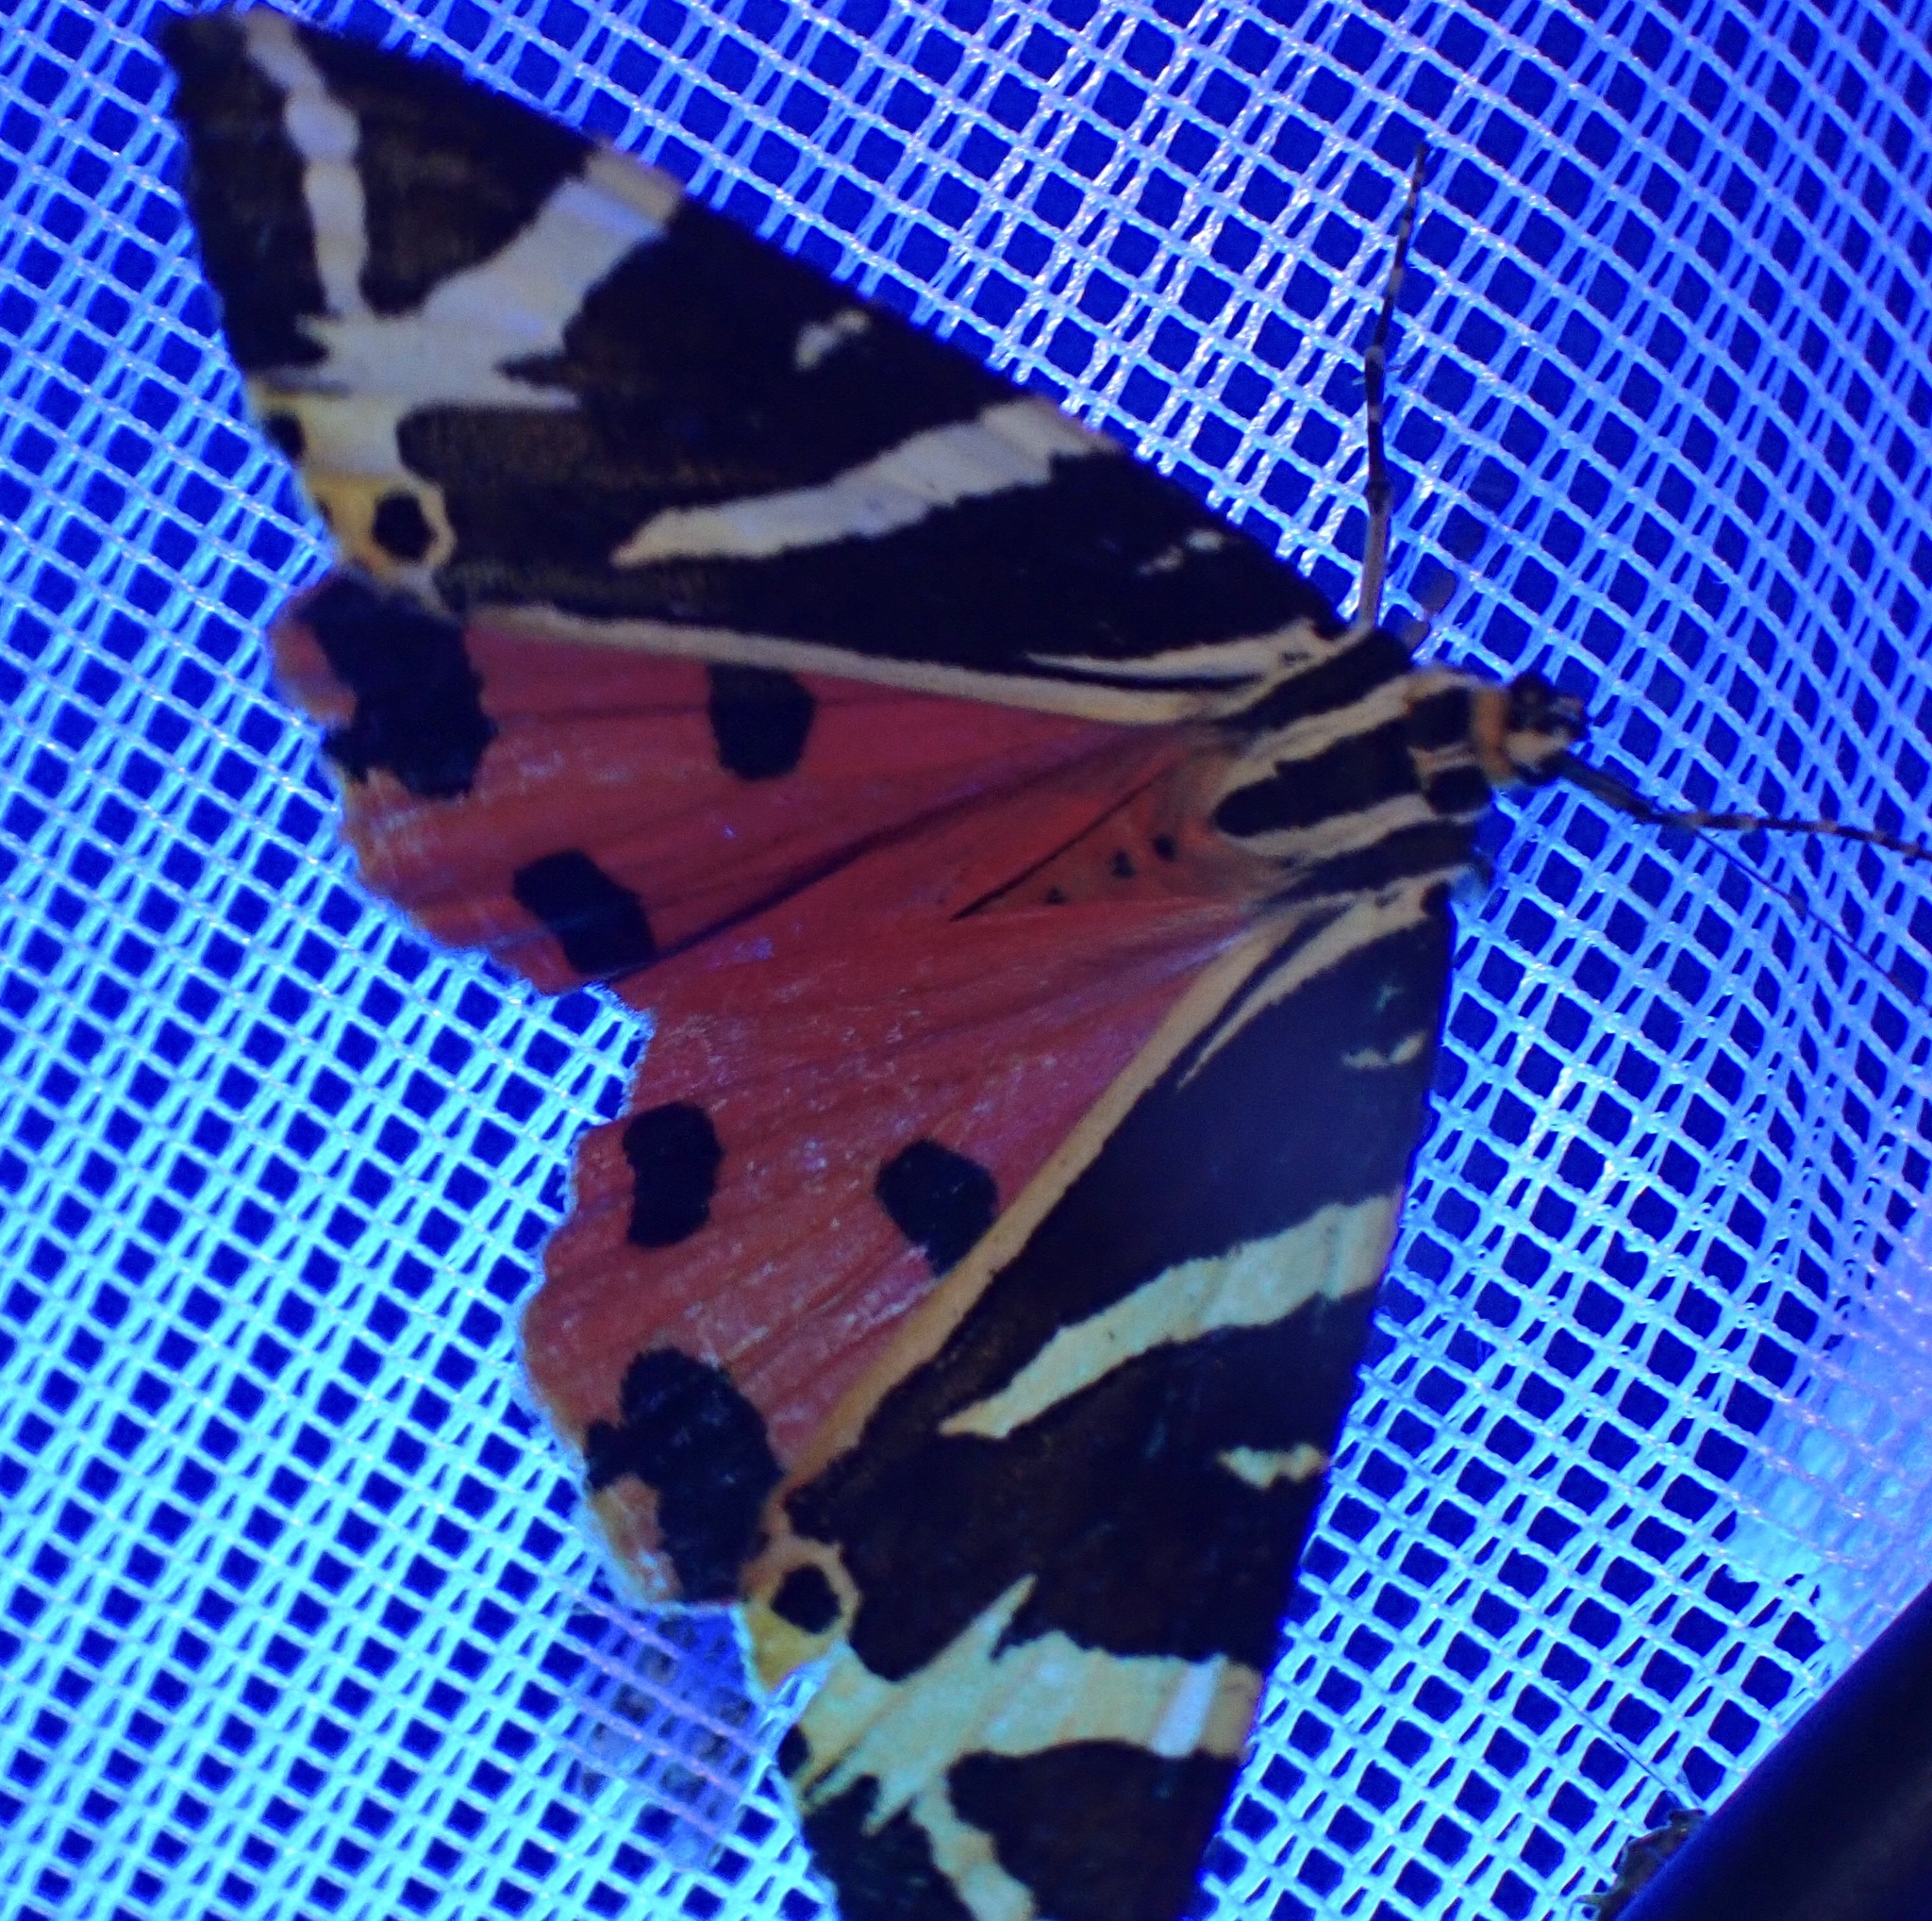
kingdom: Animalia
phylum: Arthropoda
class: Insecta
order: Lepidoptera
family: Erebidae
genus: Euplagia
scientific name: Euplagia quadripunctaria
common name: Jersey tiger
